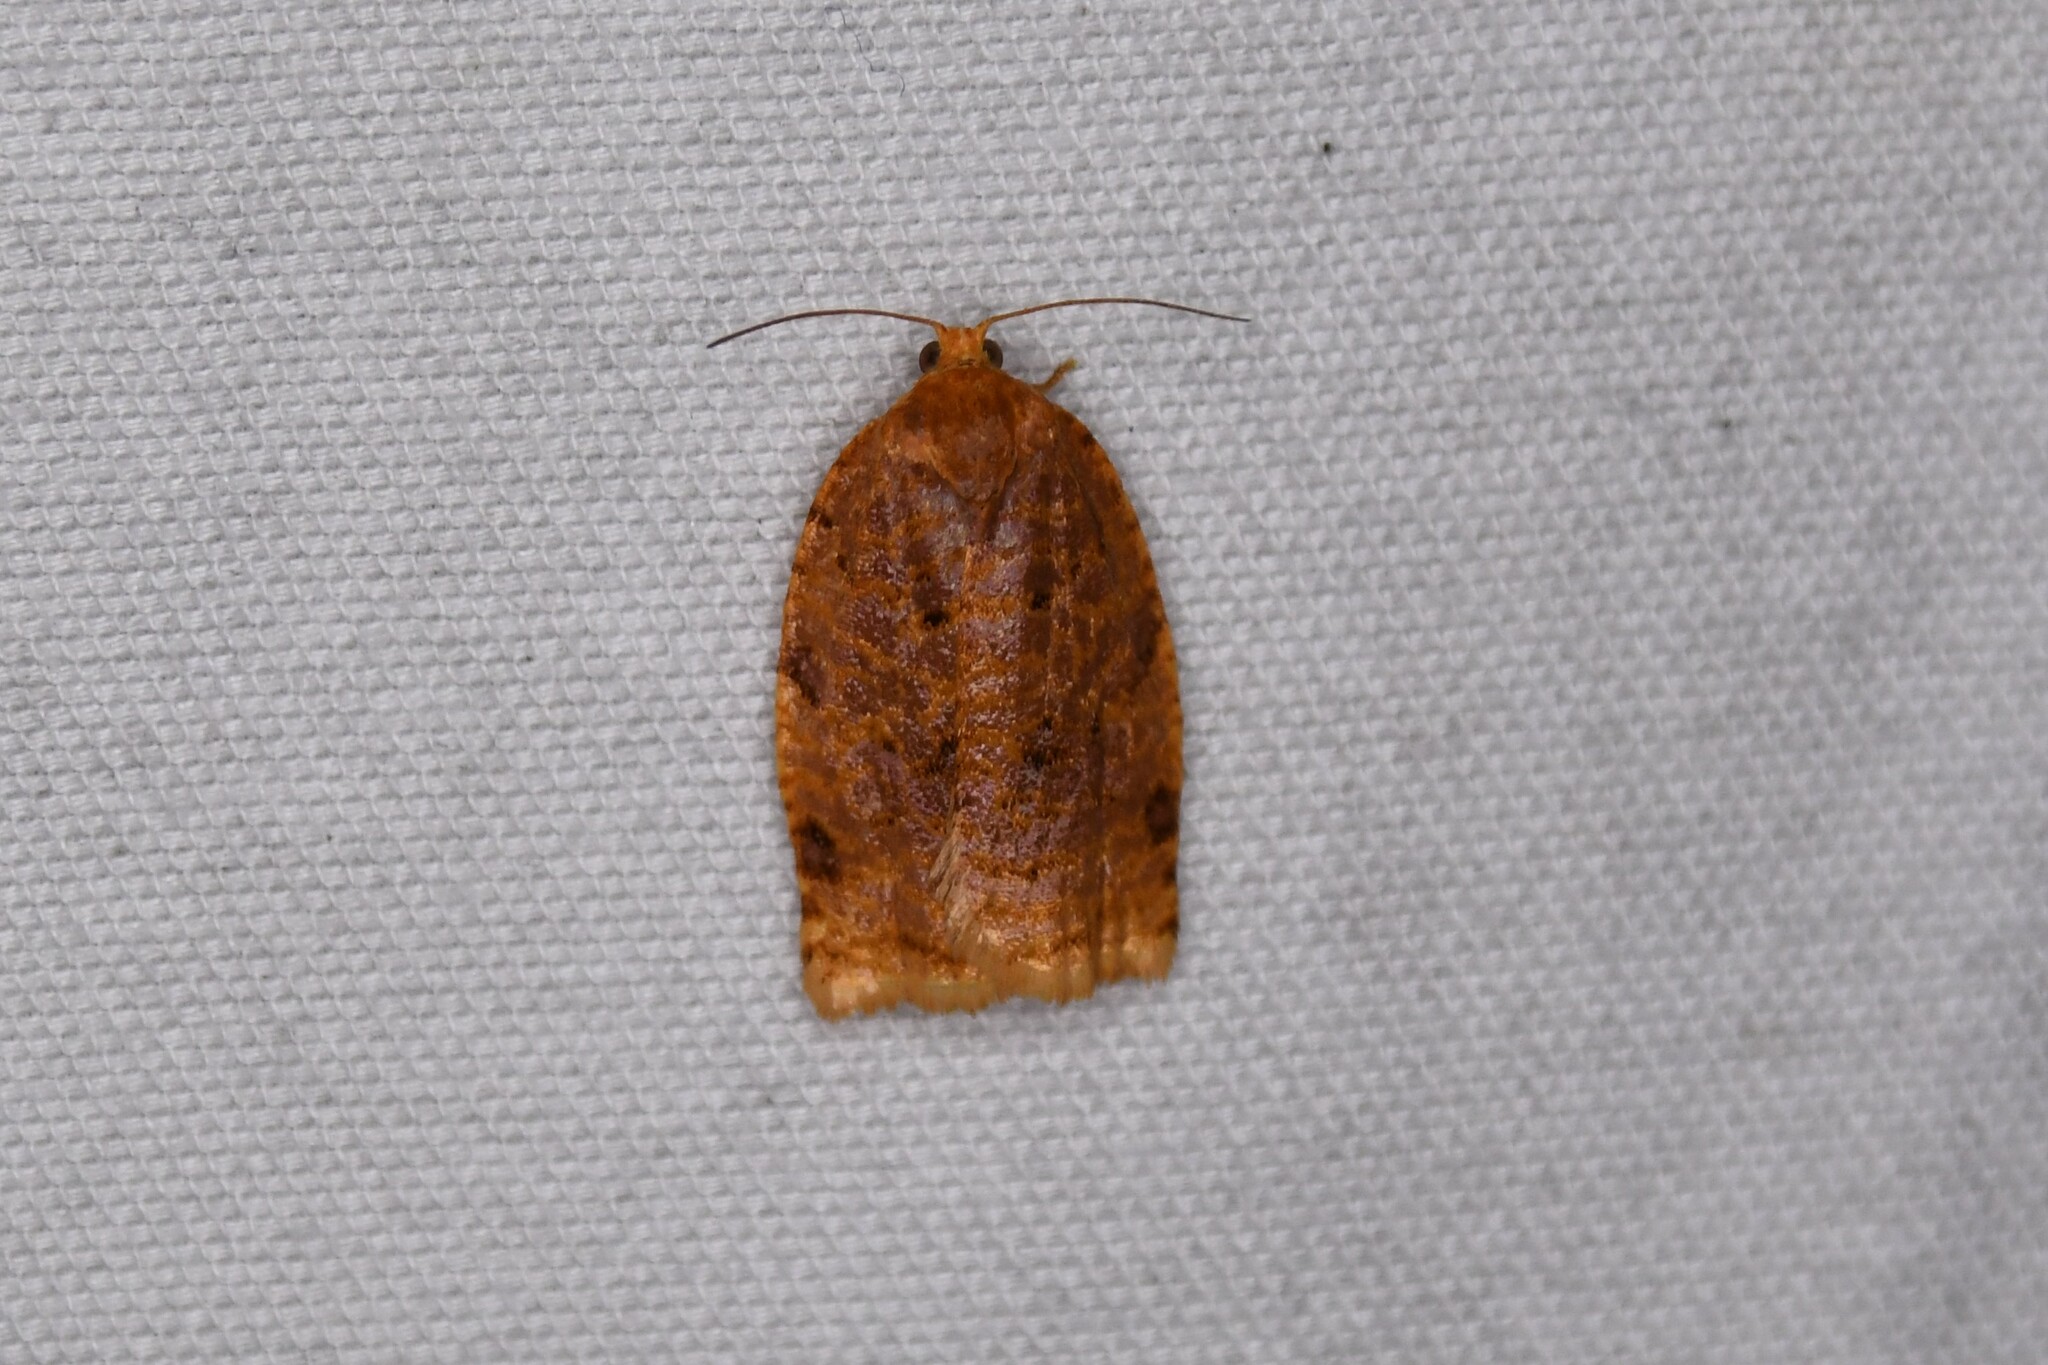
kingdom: Animalia
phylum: Arthropoda
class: Insecta
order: Lepidoptera
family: Tortricidae
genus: Archips
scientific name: Archips cerasivorana
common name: Uglynest caterpillar
